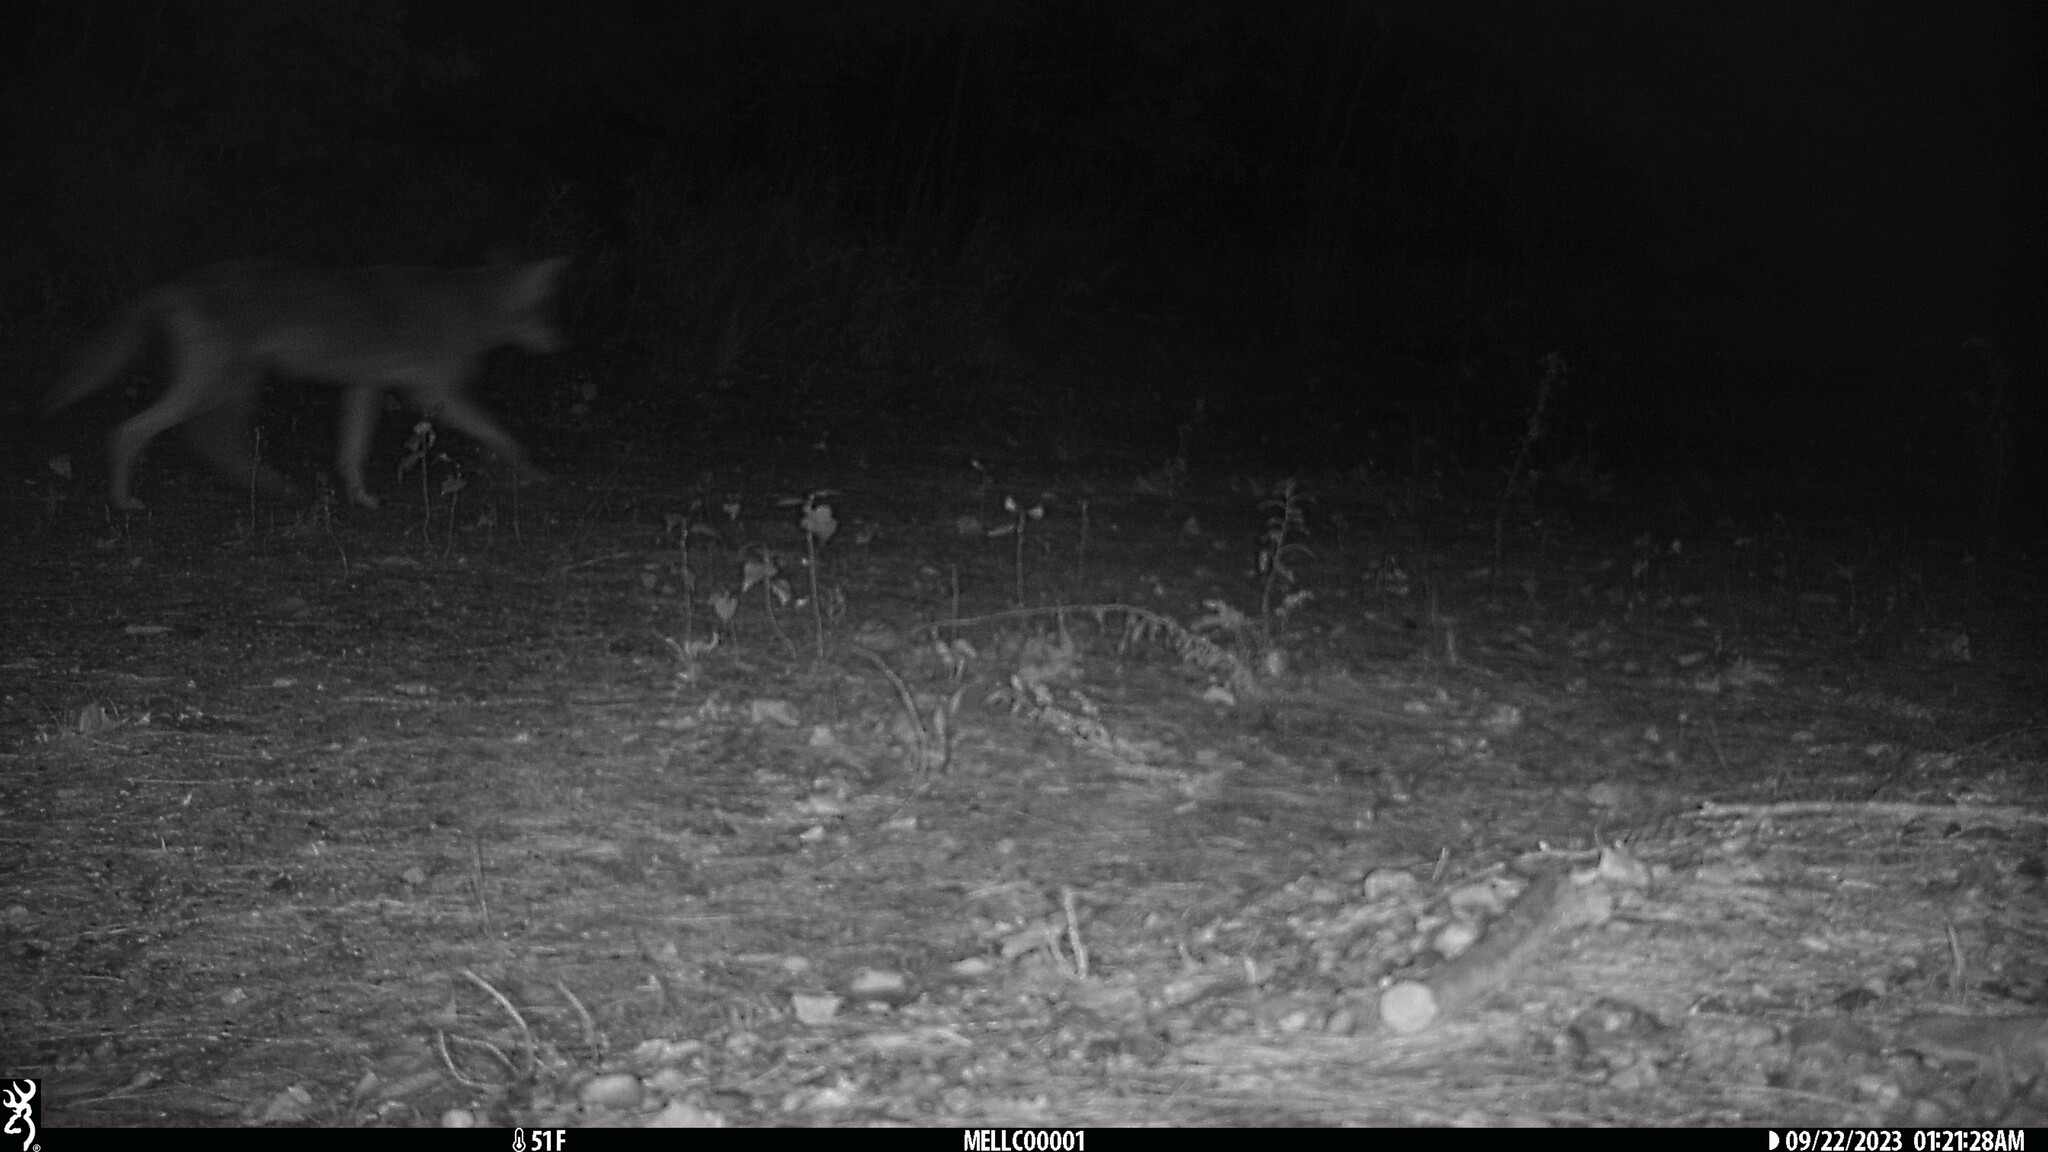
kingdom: Animalia
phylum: Chordata
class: Mammalia
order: Carnivora
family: Canidae
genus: Canis
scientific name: Canis latrans
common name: Coyote
